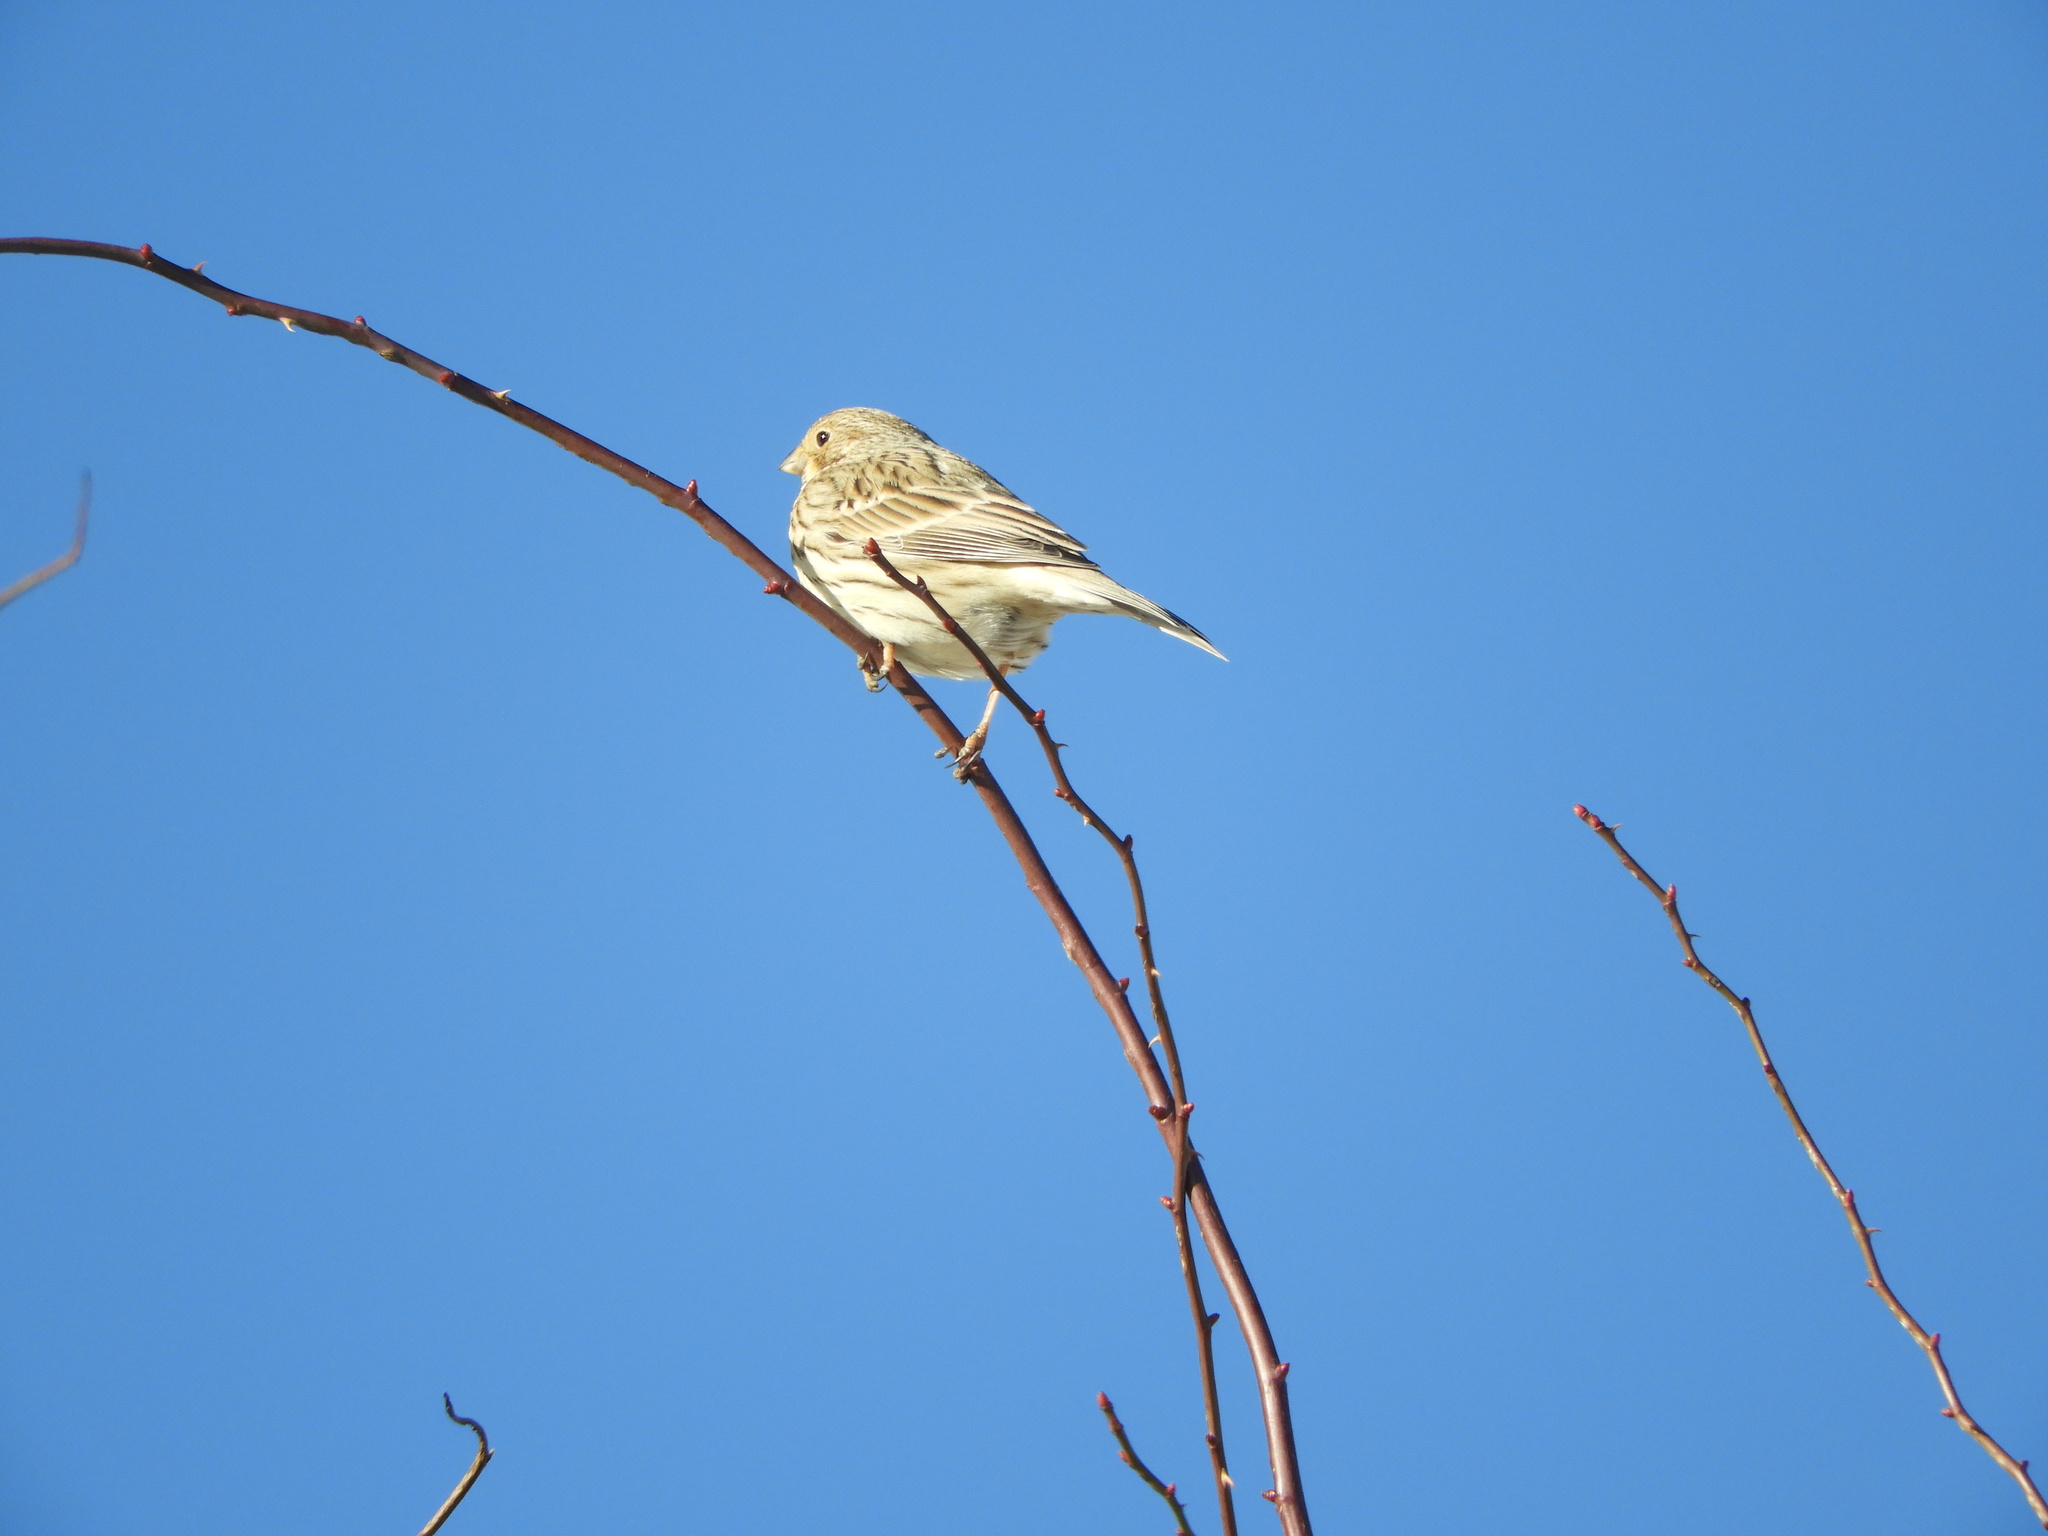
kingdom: Animalia
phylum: Chordata
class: Aves
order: Passeriformes
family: Emberizidae
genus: Emberiza
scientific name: Emberiza calandra
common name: Corn bunting
